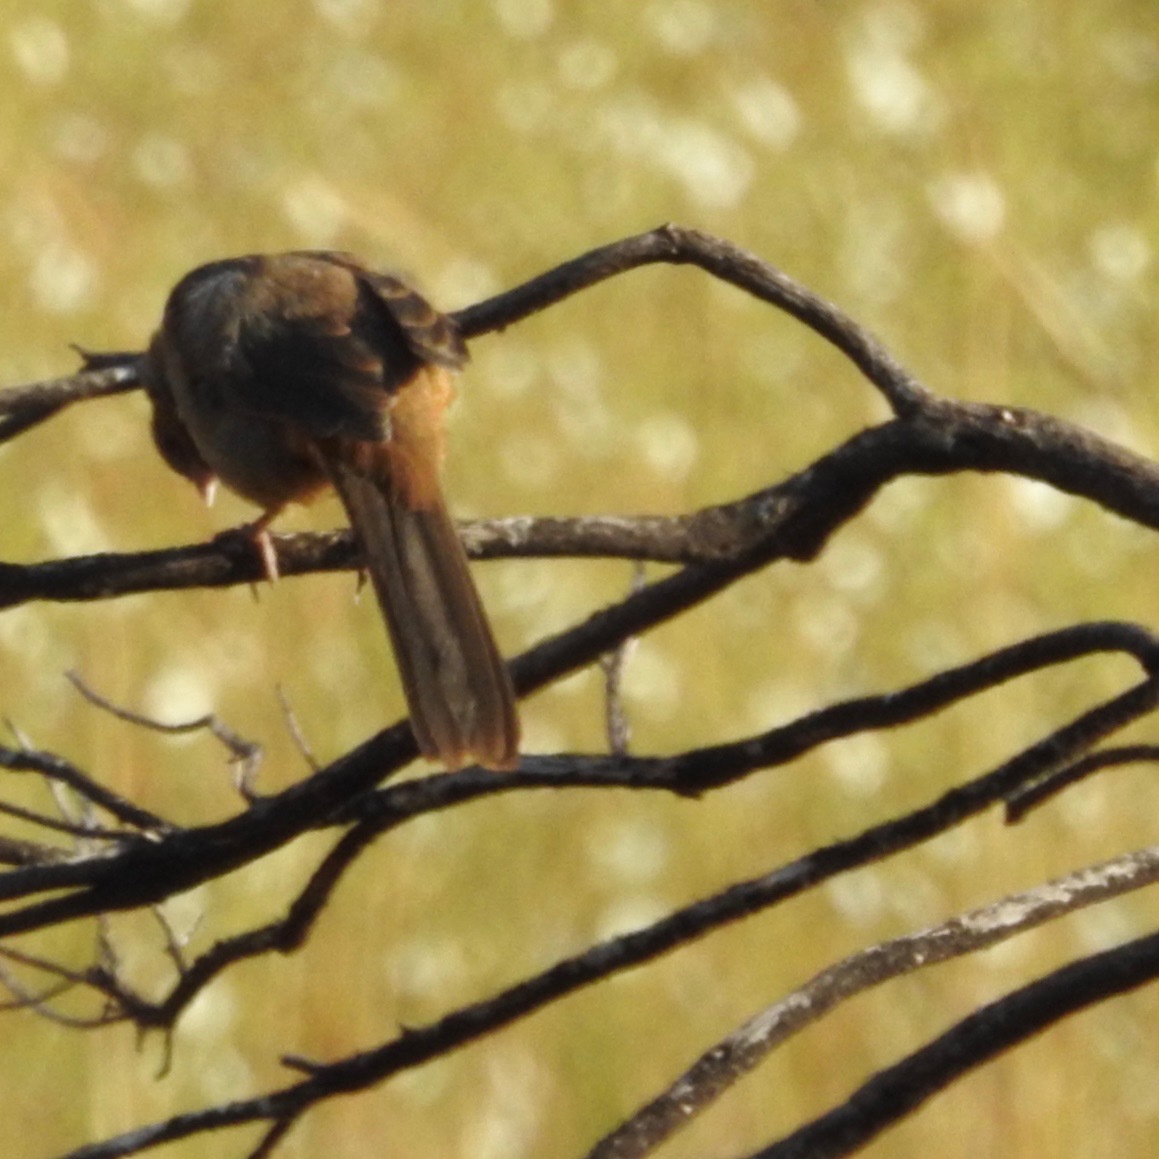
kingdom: Animalia
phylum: Chordata
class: Aves
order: Passeriformes
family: Passerellidae
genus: Melozone
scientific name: Melozone crissalis
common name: California towhee
